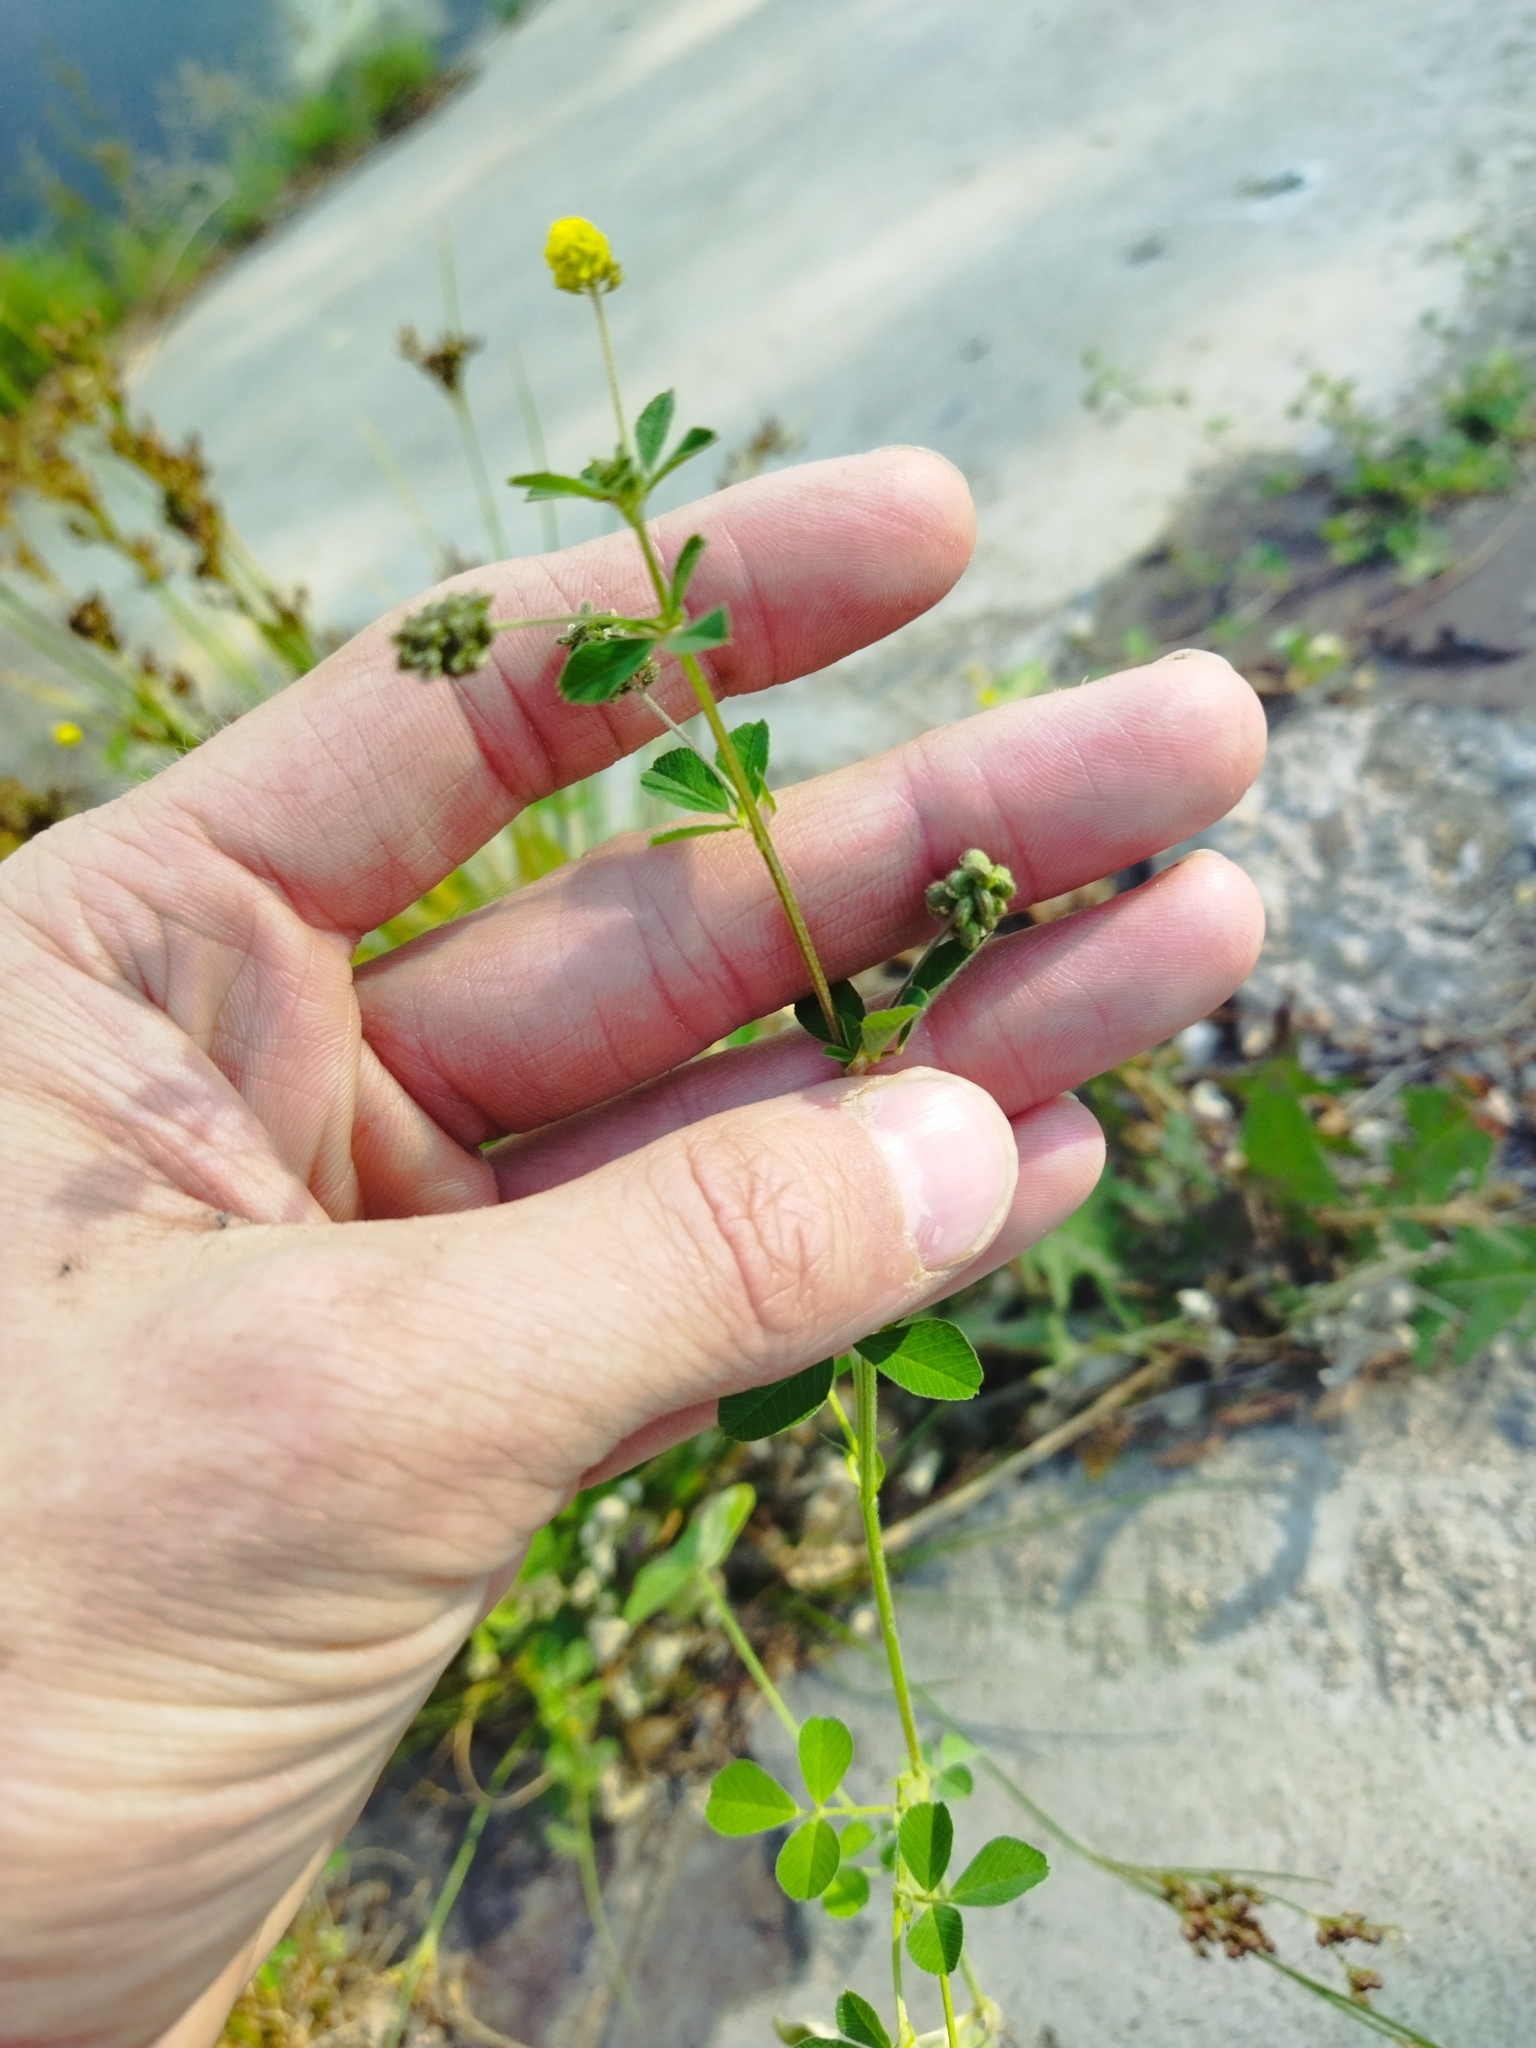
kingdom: Plantae
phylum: Tracheophyta
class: Magnoliopsida
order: Fabales
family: Fabaceae
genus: Medicago
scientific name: Medicago lupulina
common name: Black medick
